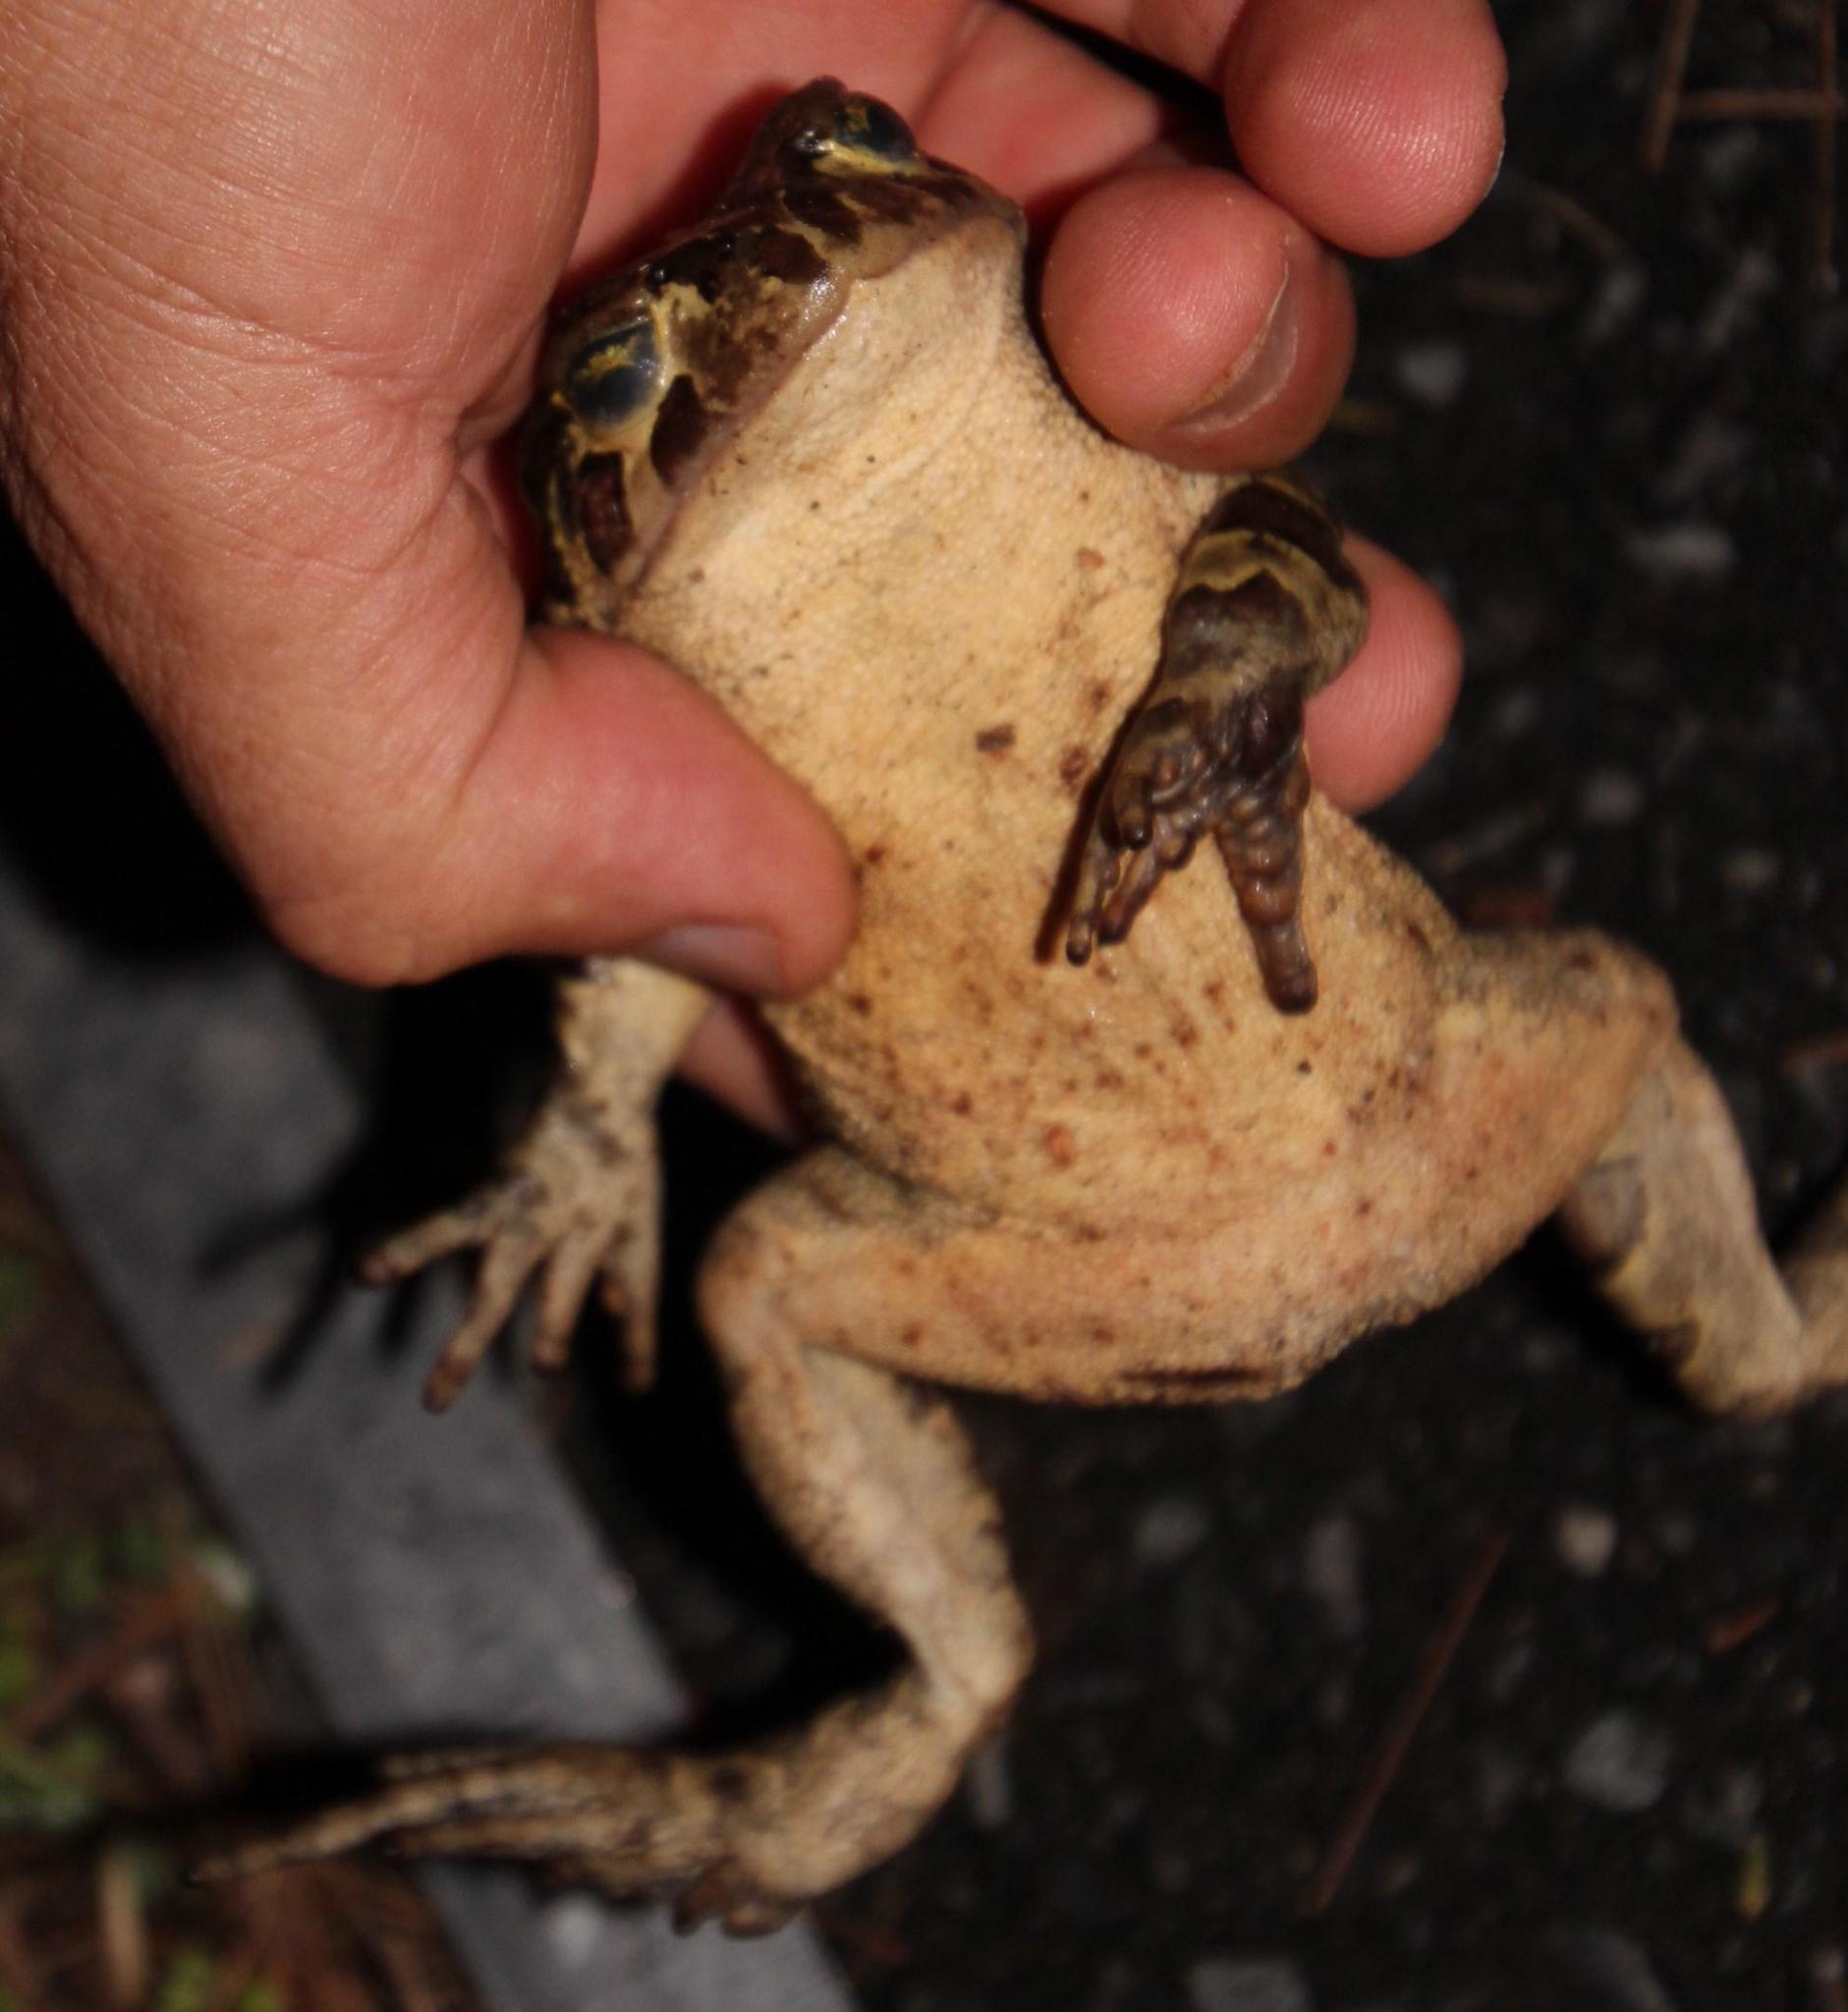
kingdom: Animalia
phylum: Chordata
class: Amphibia
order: Anura
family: Bufonidae
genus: Sclerophrys
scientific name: Sclerophrys pantherina
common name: Panther toad
